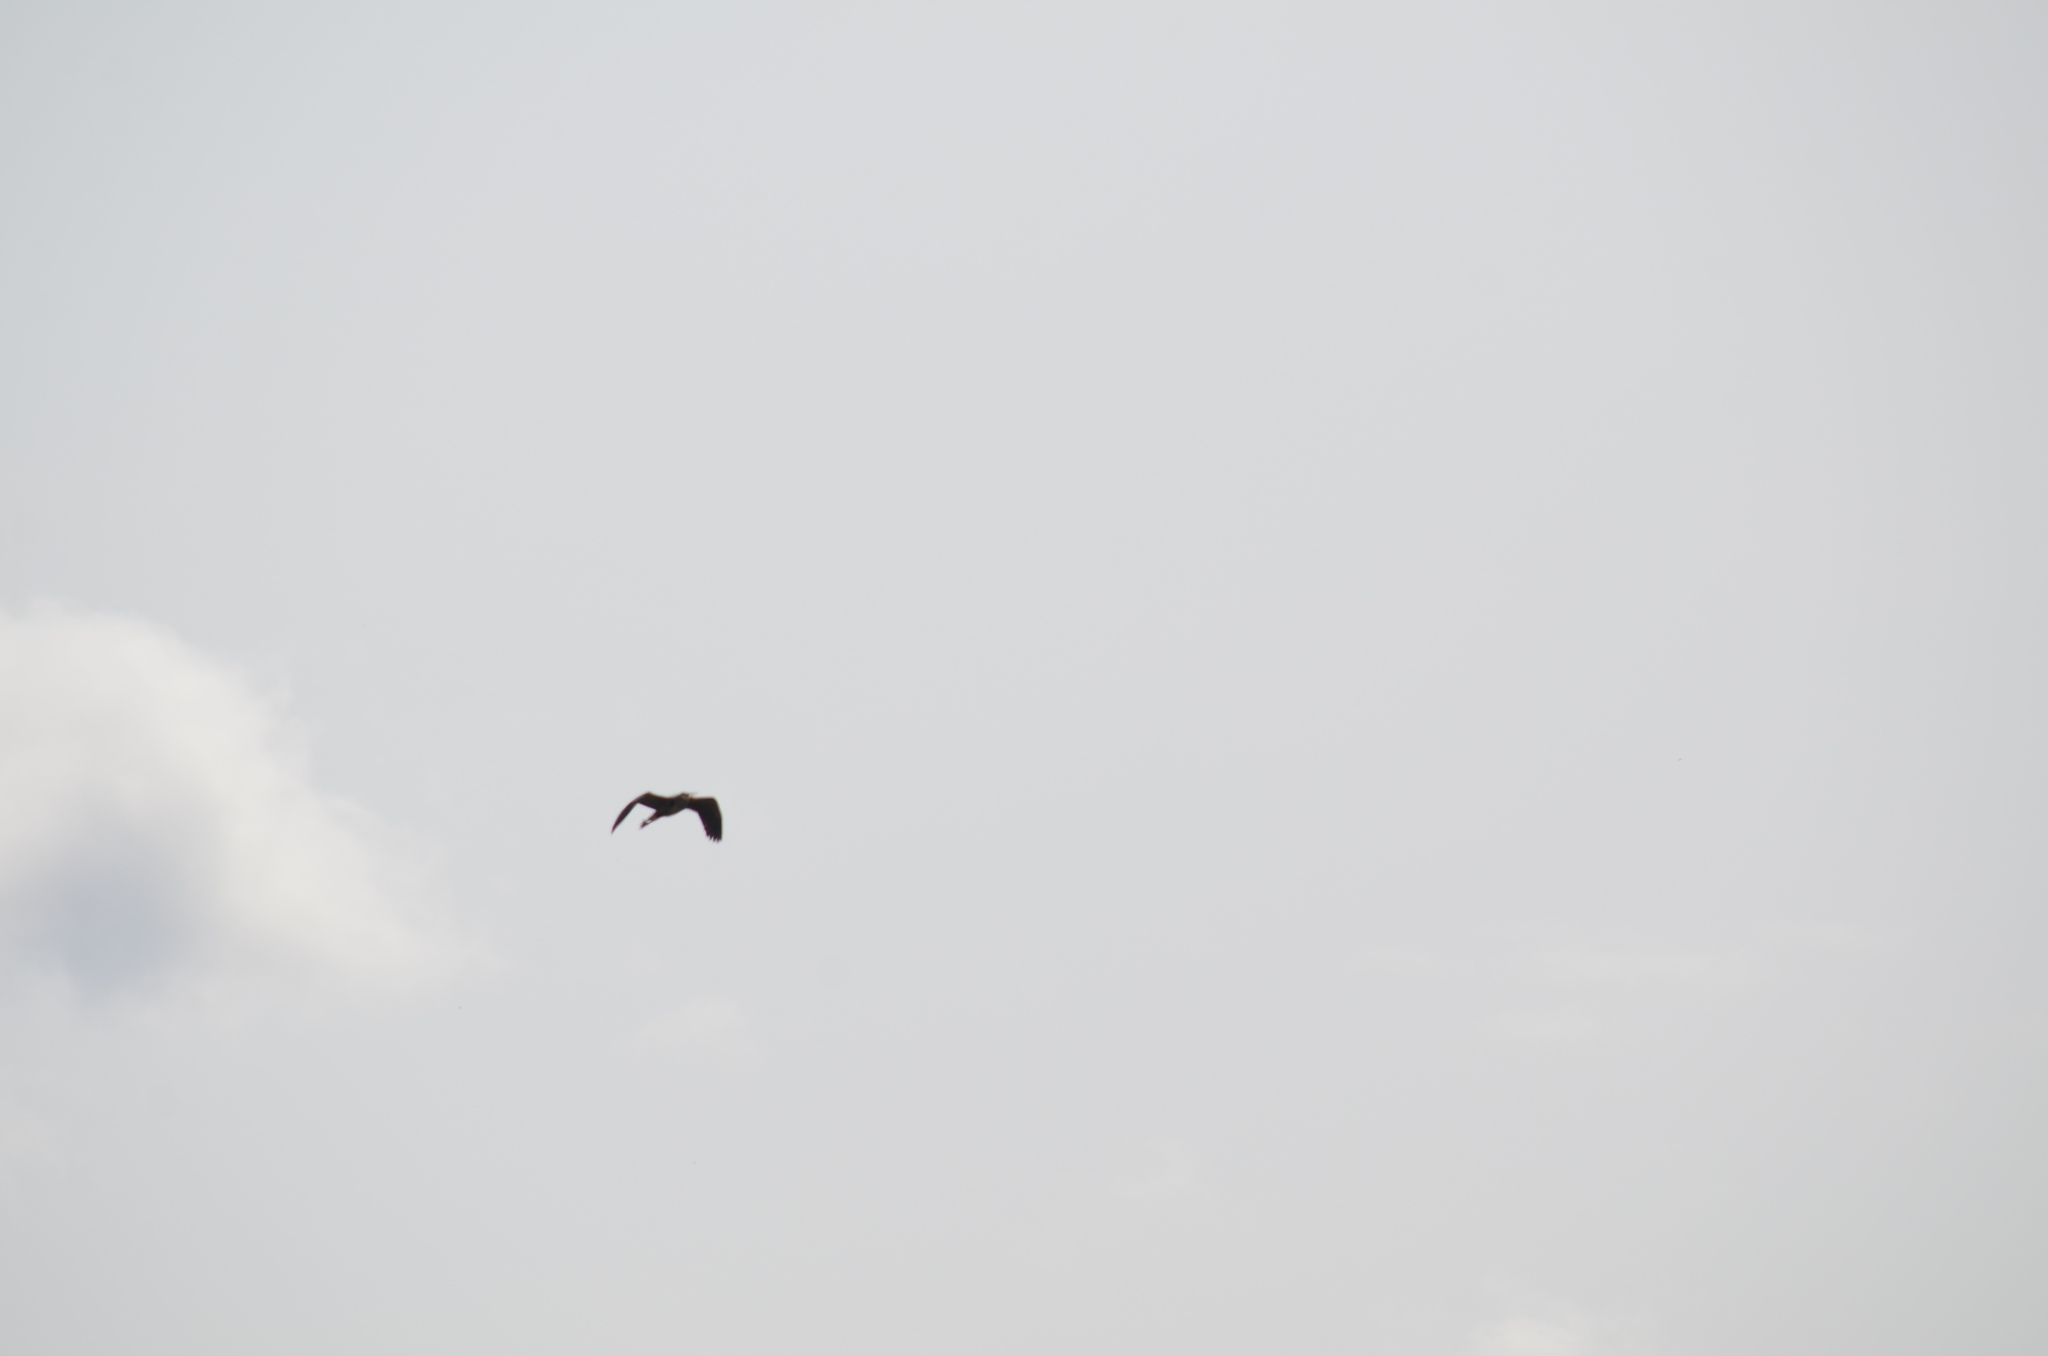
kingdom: Animalia
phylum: Chordata
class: Aves
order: Pelecaniformes
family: Ardeidae
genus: Ardea
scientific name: Ardea herodias
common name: Great blue heron
